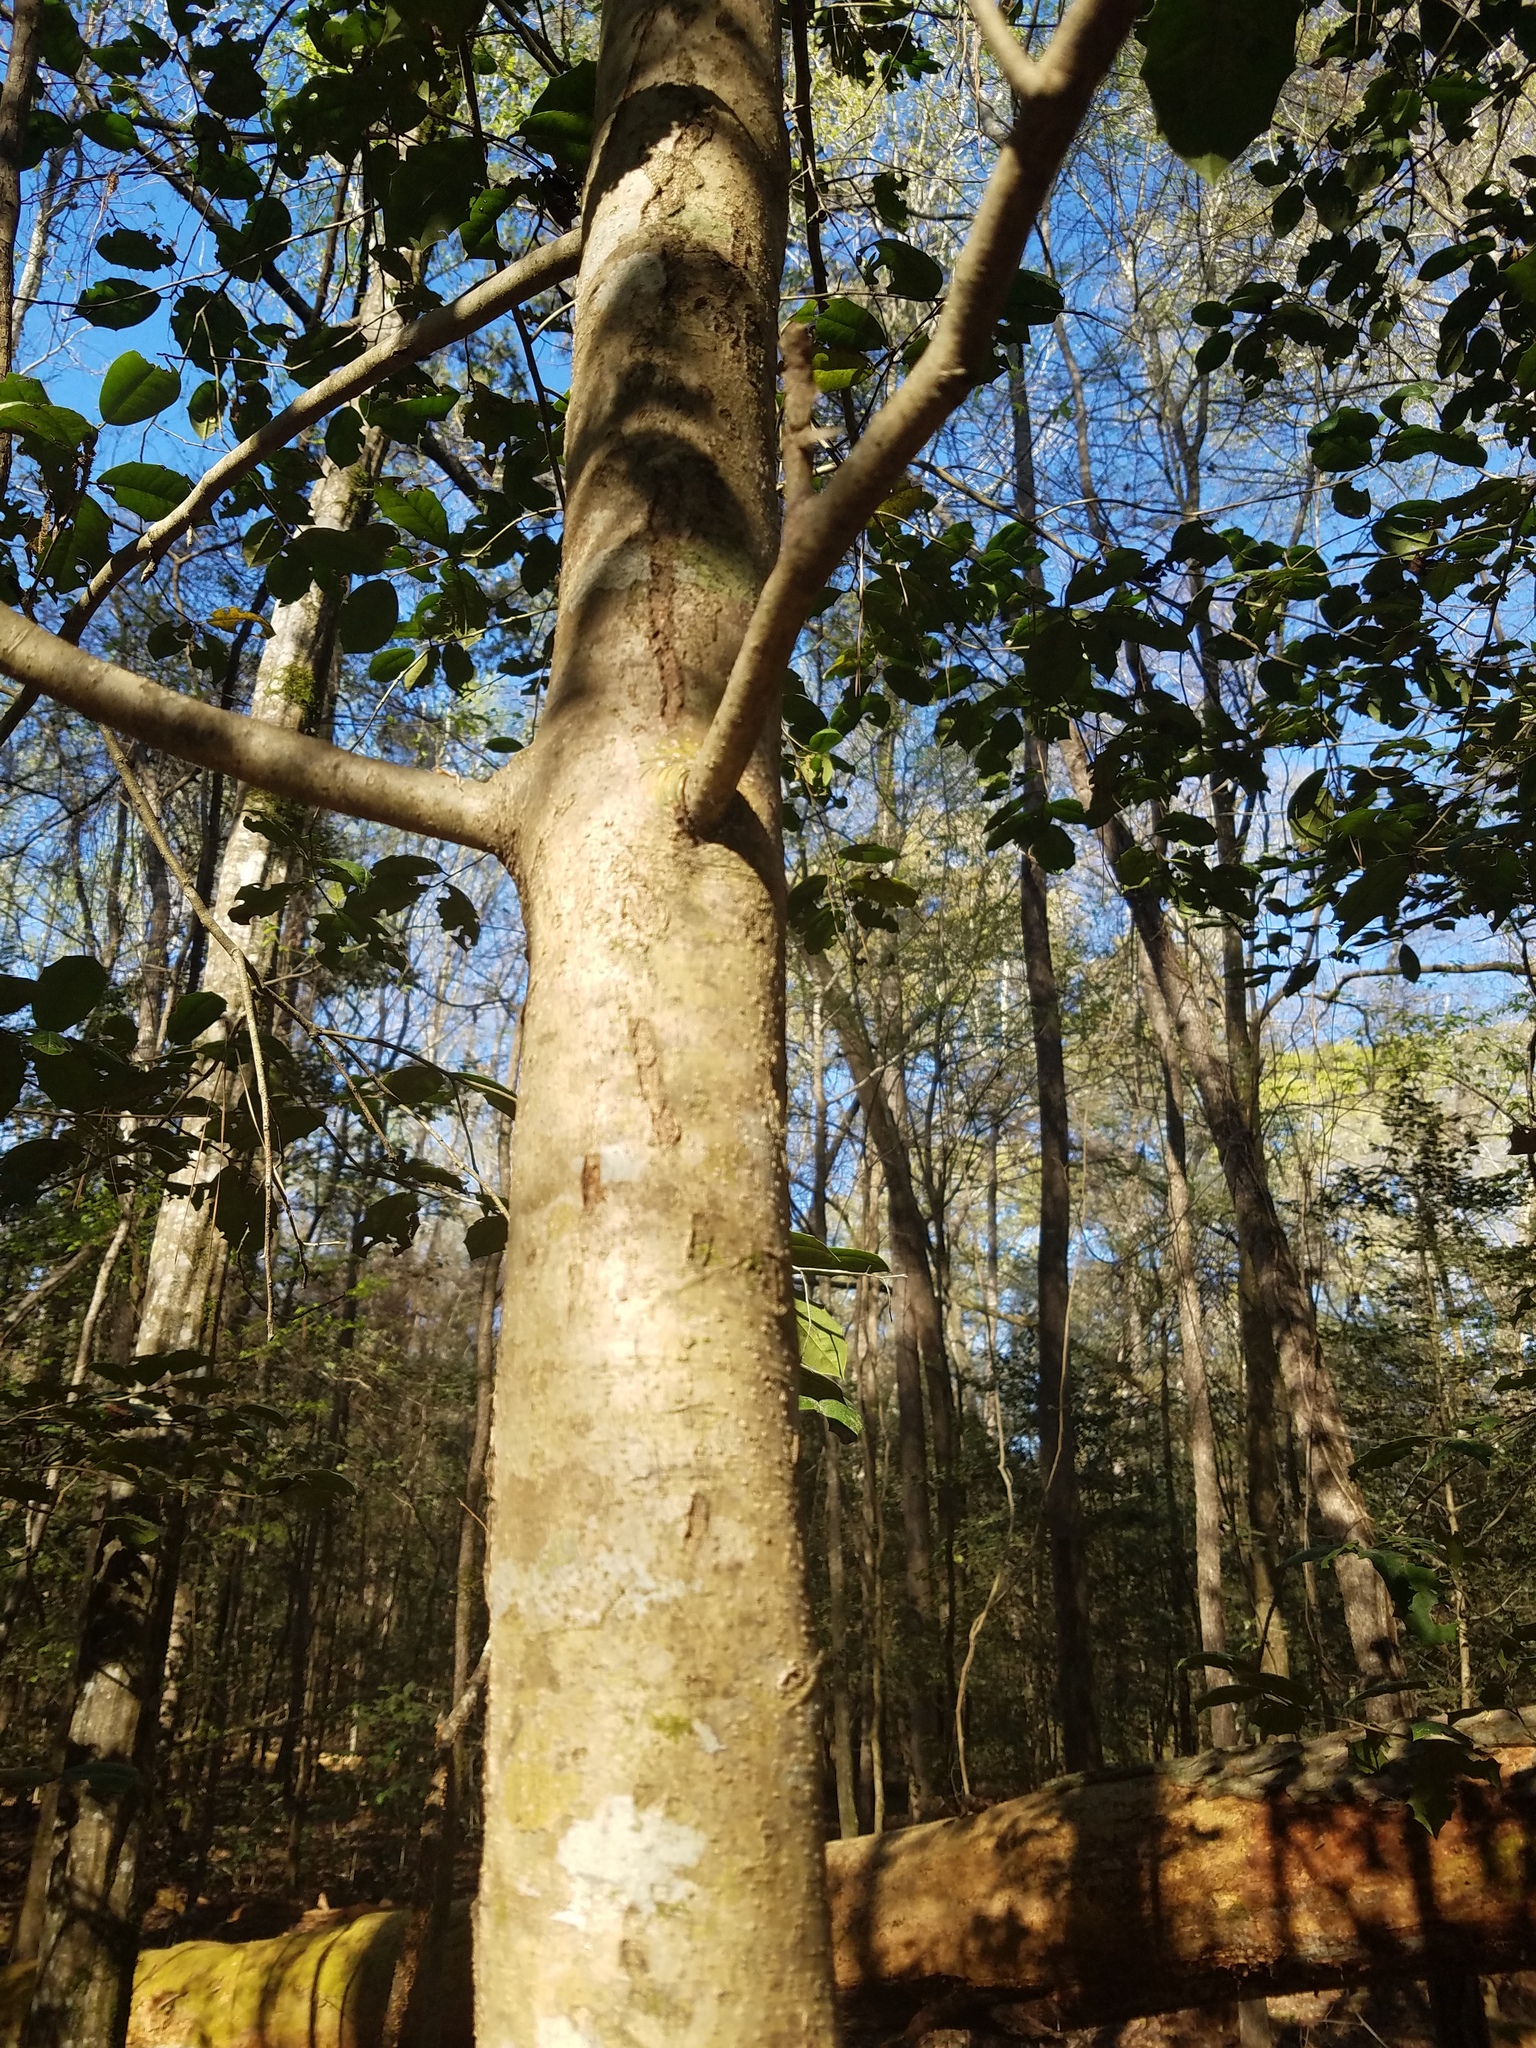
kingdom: Plantae
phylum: Tracheophyta
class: Magnoliopsida
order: Aquifoliales
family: Aquifoliaceae
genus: Ilex
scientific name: Ilex opaca
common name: American holly
